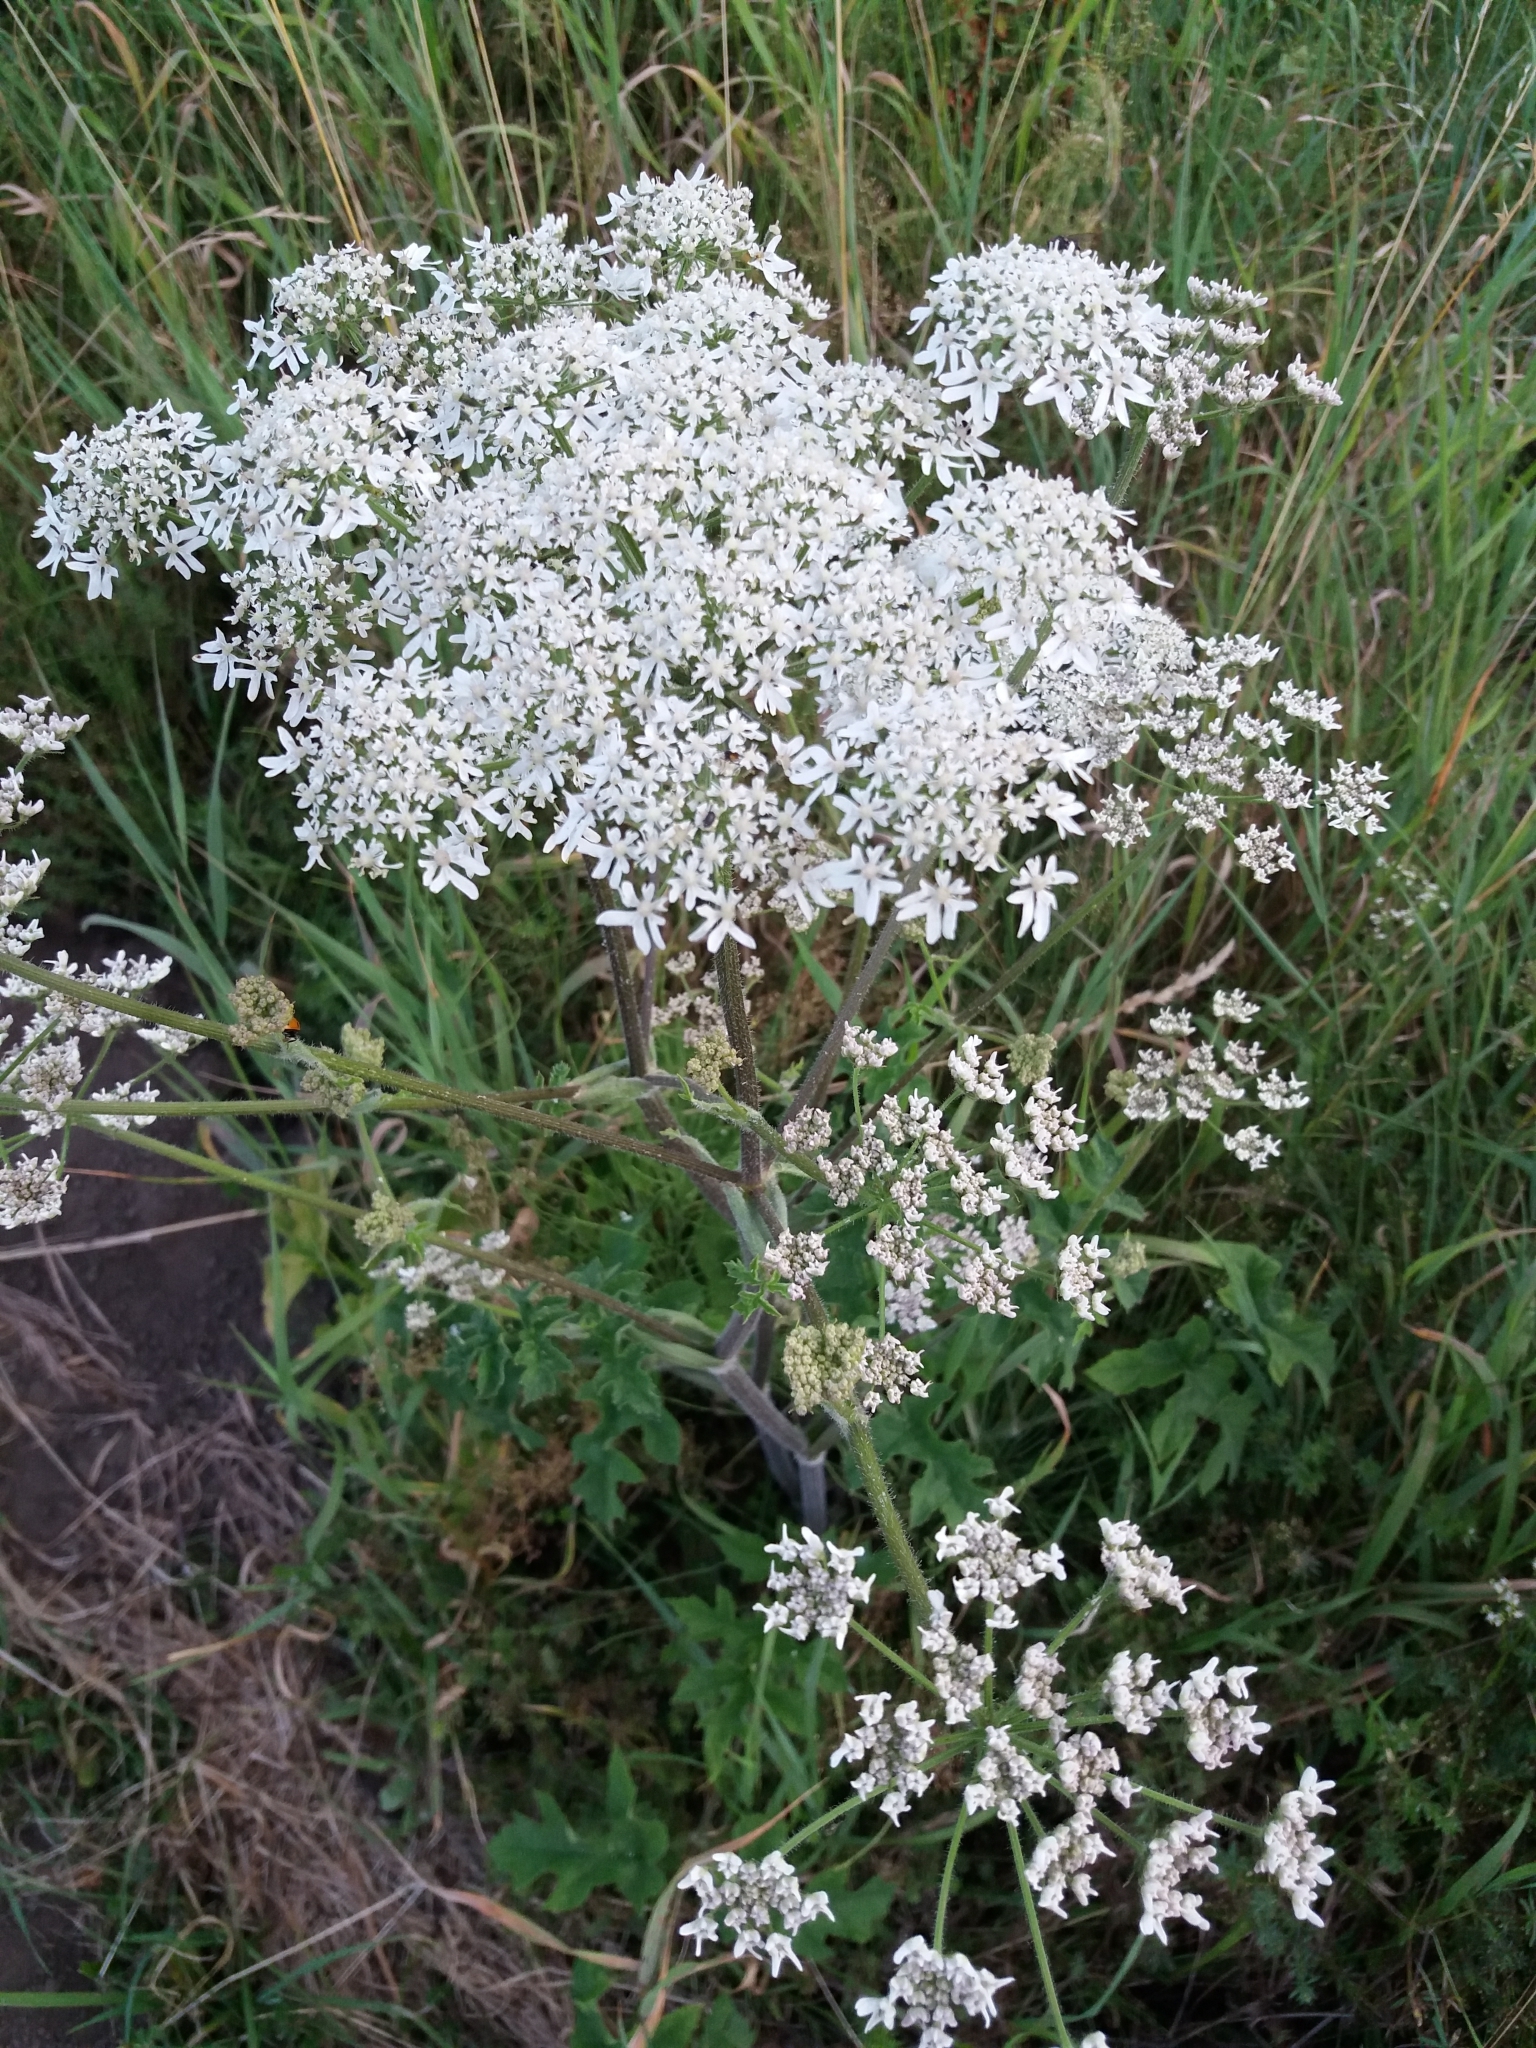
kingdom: Plantae
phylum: Tracheophyta
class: Magnoliopsida
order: Apiales
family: Apiaceae
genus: Heracleum
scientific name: Heracleum sphondylium
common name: Hogweed
